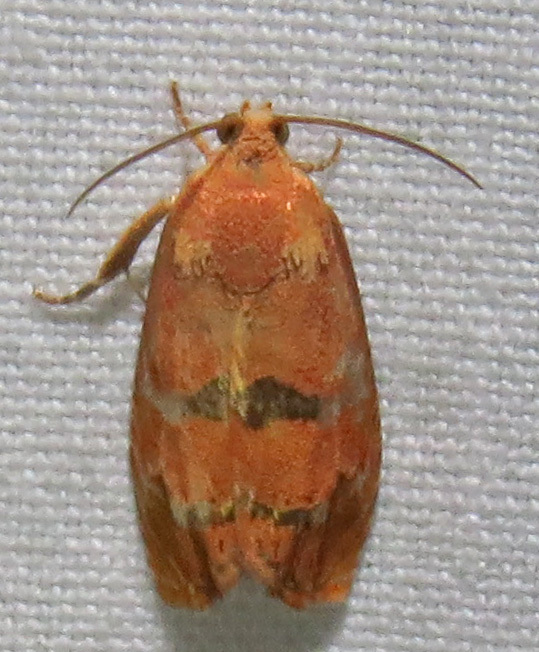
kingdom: Animalia
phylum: Arthropoda
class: Insecta
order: Lepidoptera
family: Tortricidae
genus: Cydia
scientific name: Cydia latiferreana
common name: Filbertworm moth
